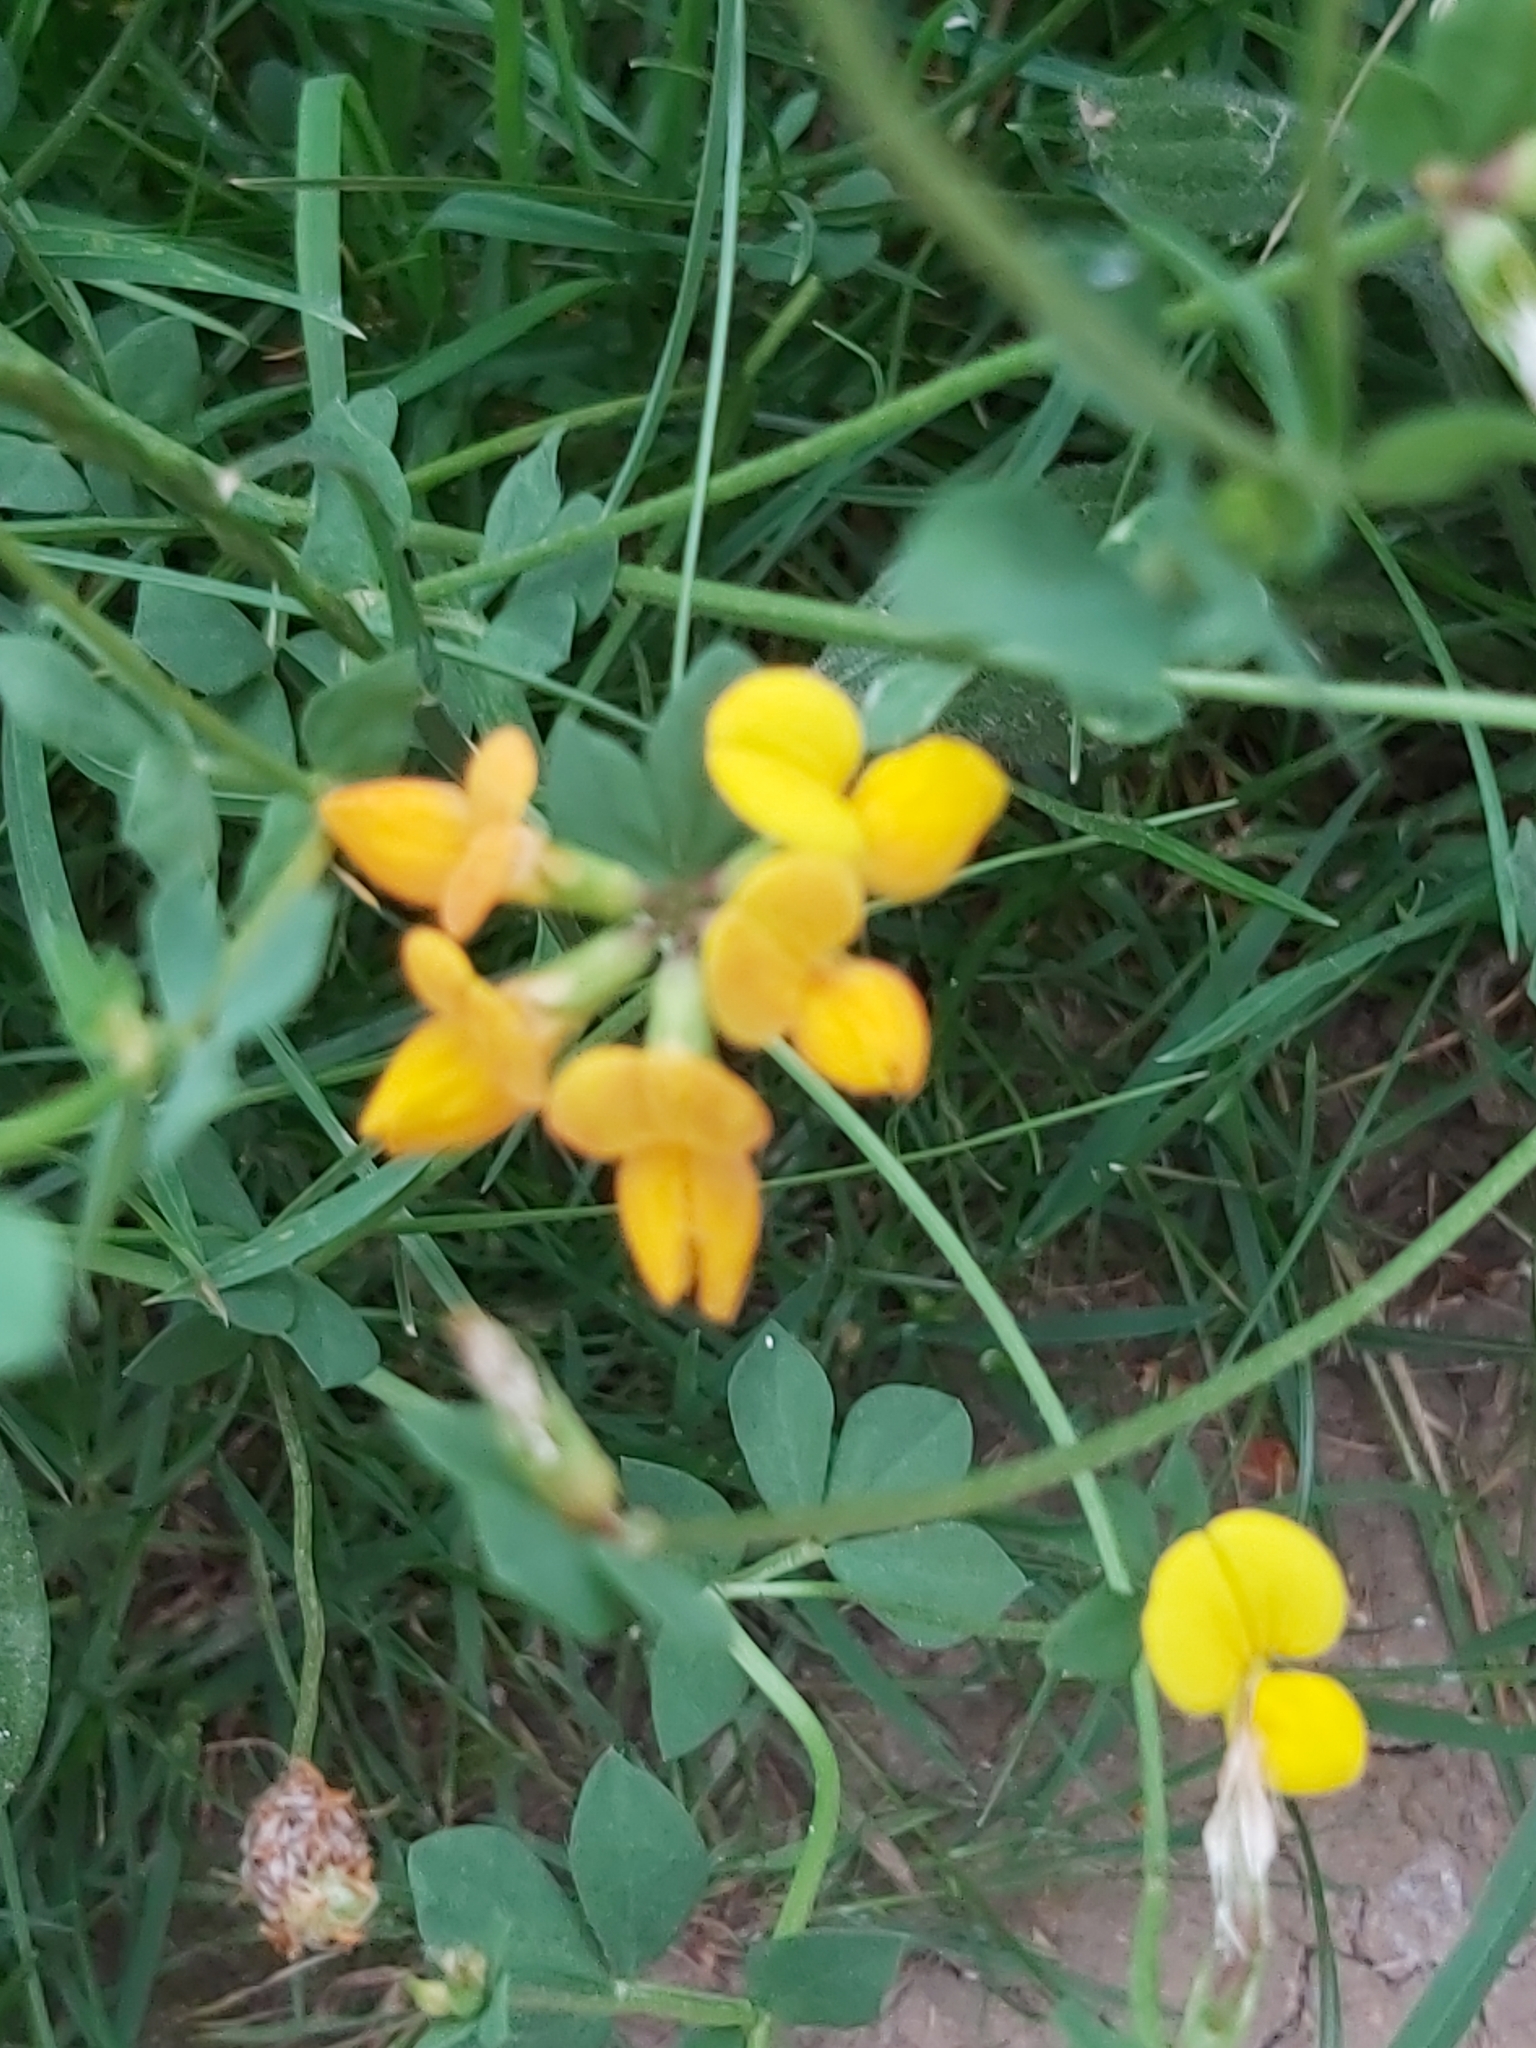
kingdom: Plantae
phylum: Tracheophyta
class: Magnoliopsida
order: Fabales
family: Fabaceae
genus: Lotus
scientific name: Lotus corniculatus
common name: Common bird's-foot-trefoil
